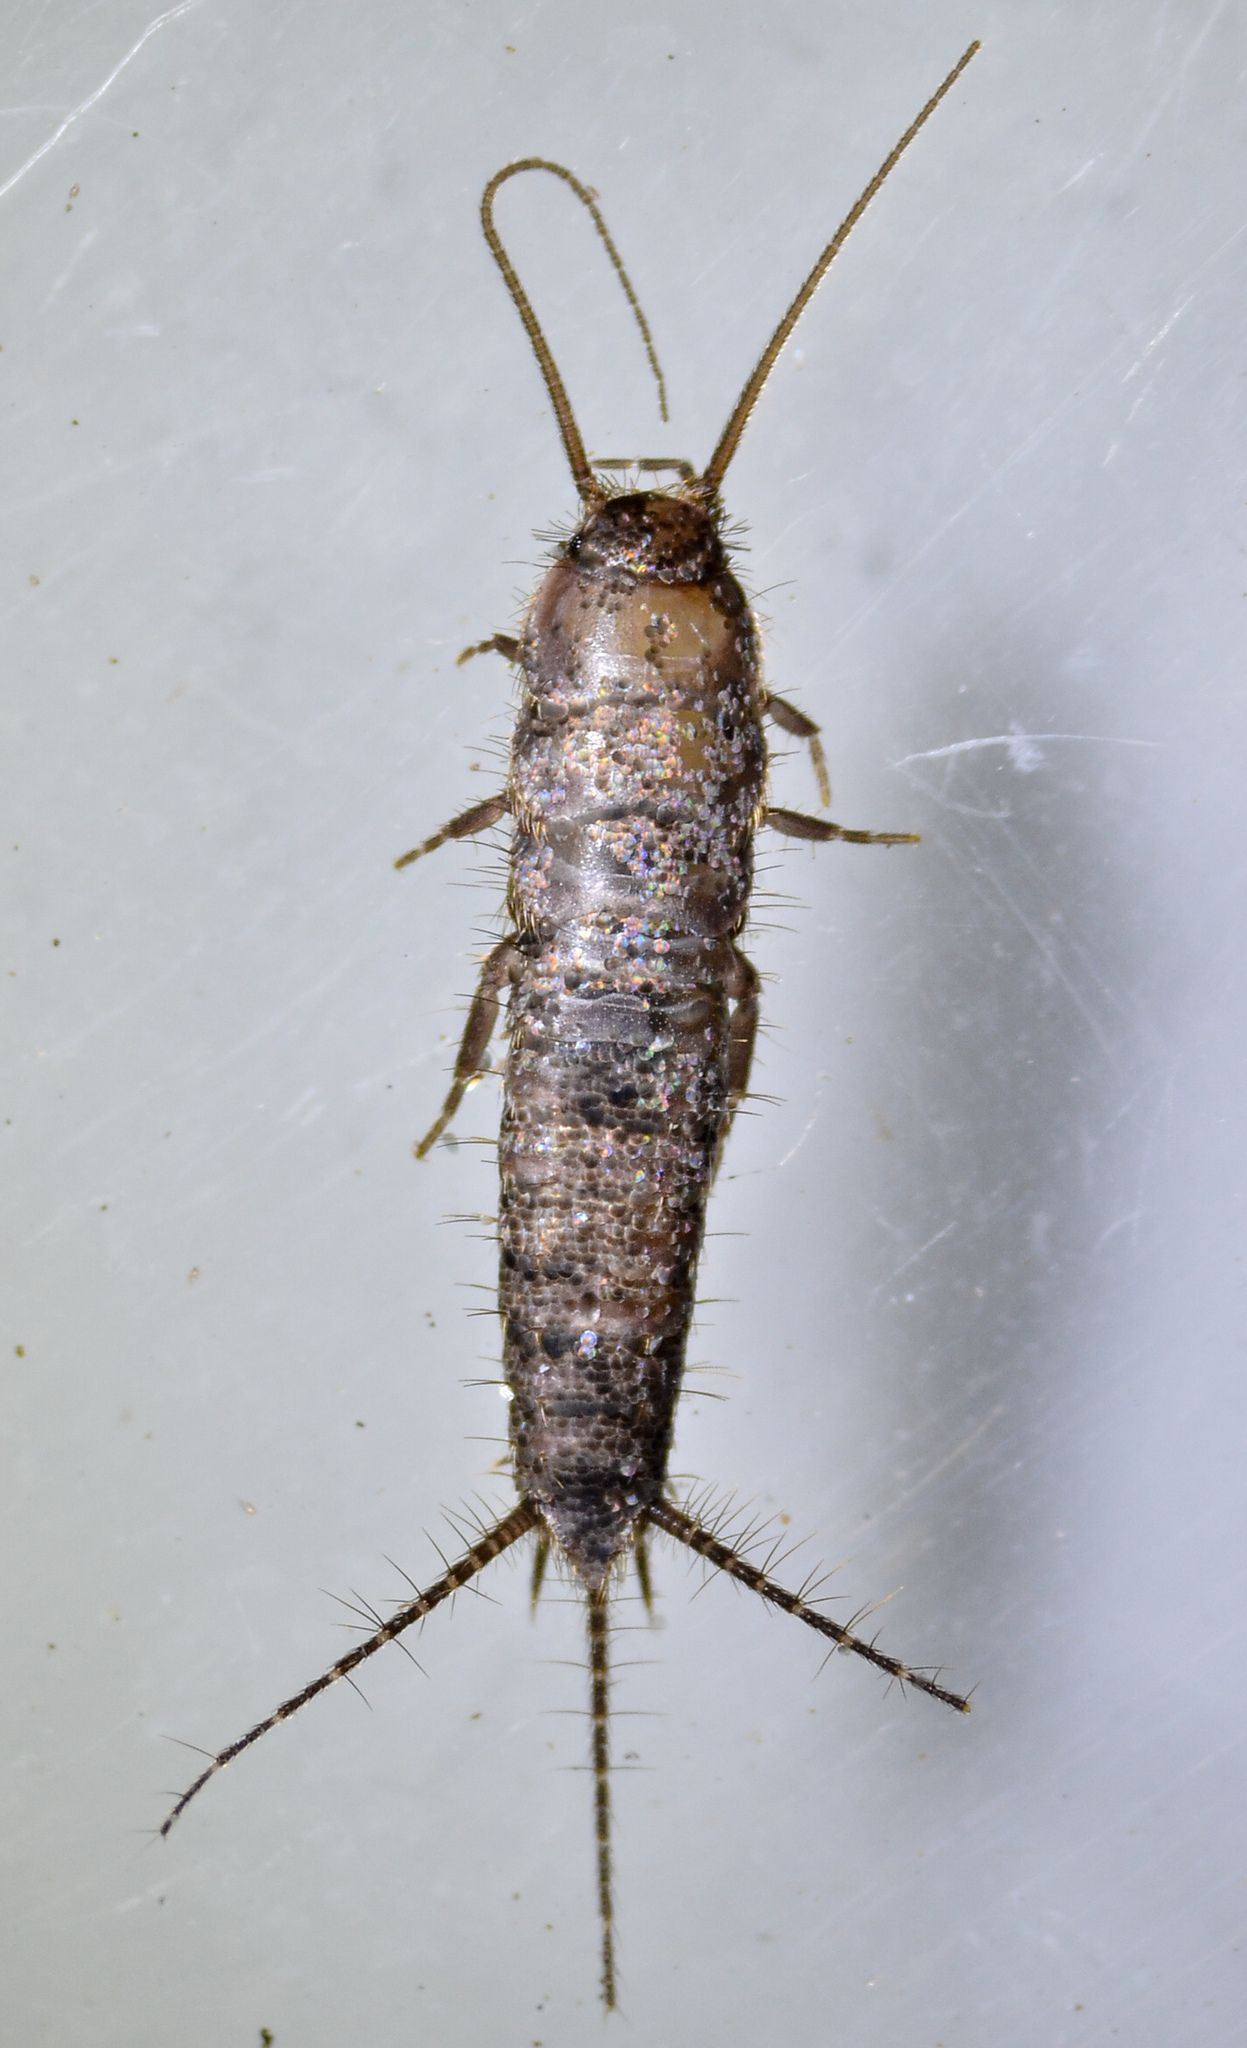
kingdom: Animalia
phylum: Arthropoda
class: Insecta
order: Zygentoma
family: Lepismatidae
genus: Allacrotelsa
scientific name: Allacrotelsa spinulata
